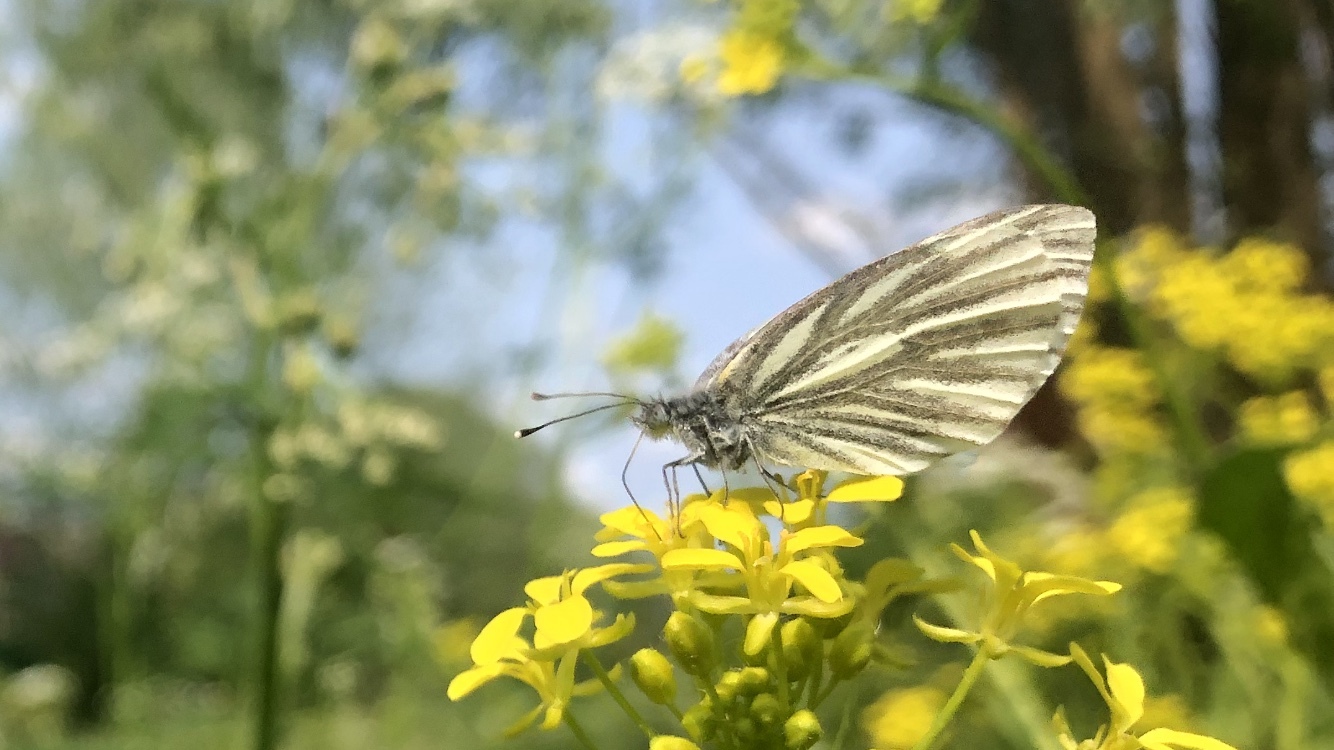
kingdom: Animalia
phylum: Arthropoda
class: Insecta
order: Lepidoptera
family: Pieridae
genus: Pieris
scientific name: Pieris napi
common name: Green-veined white
